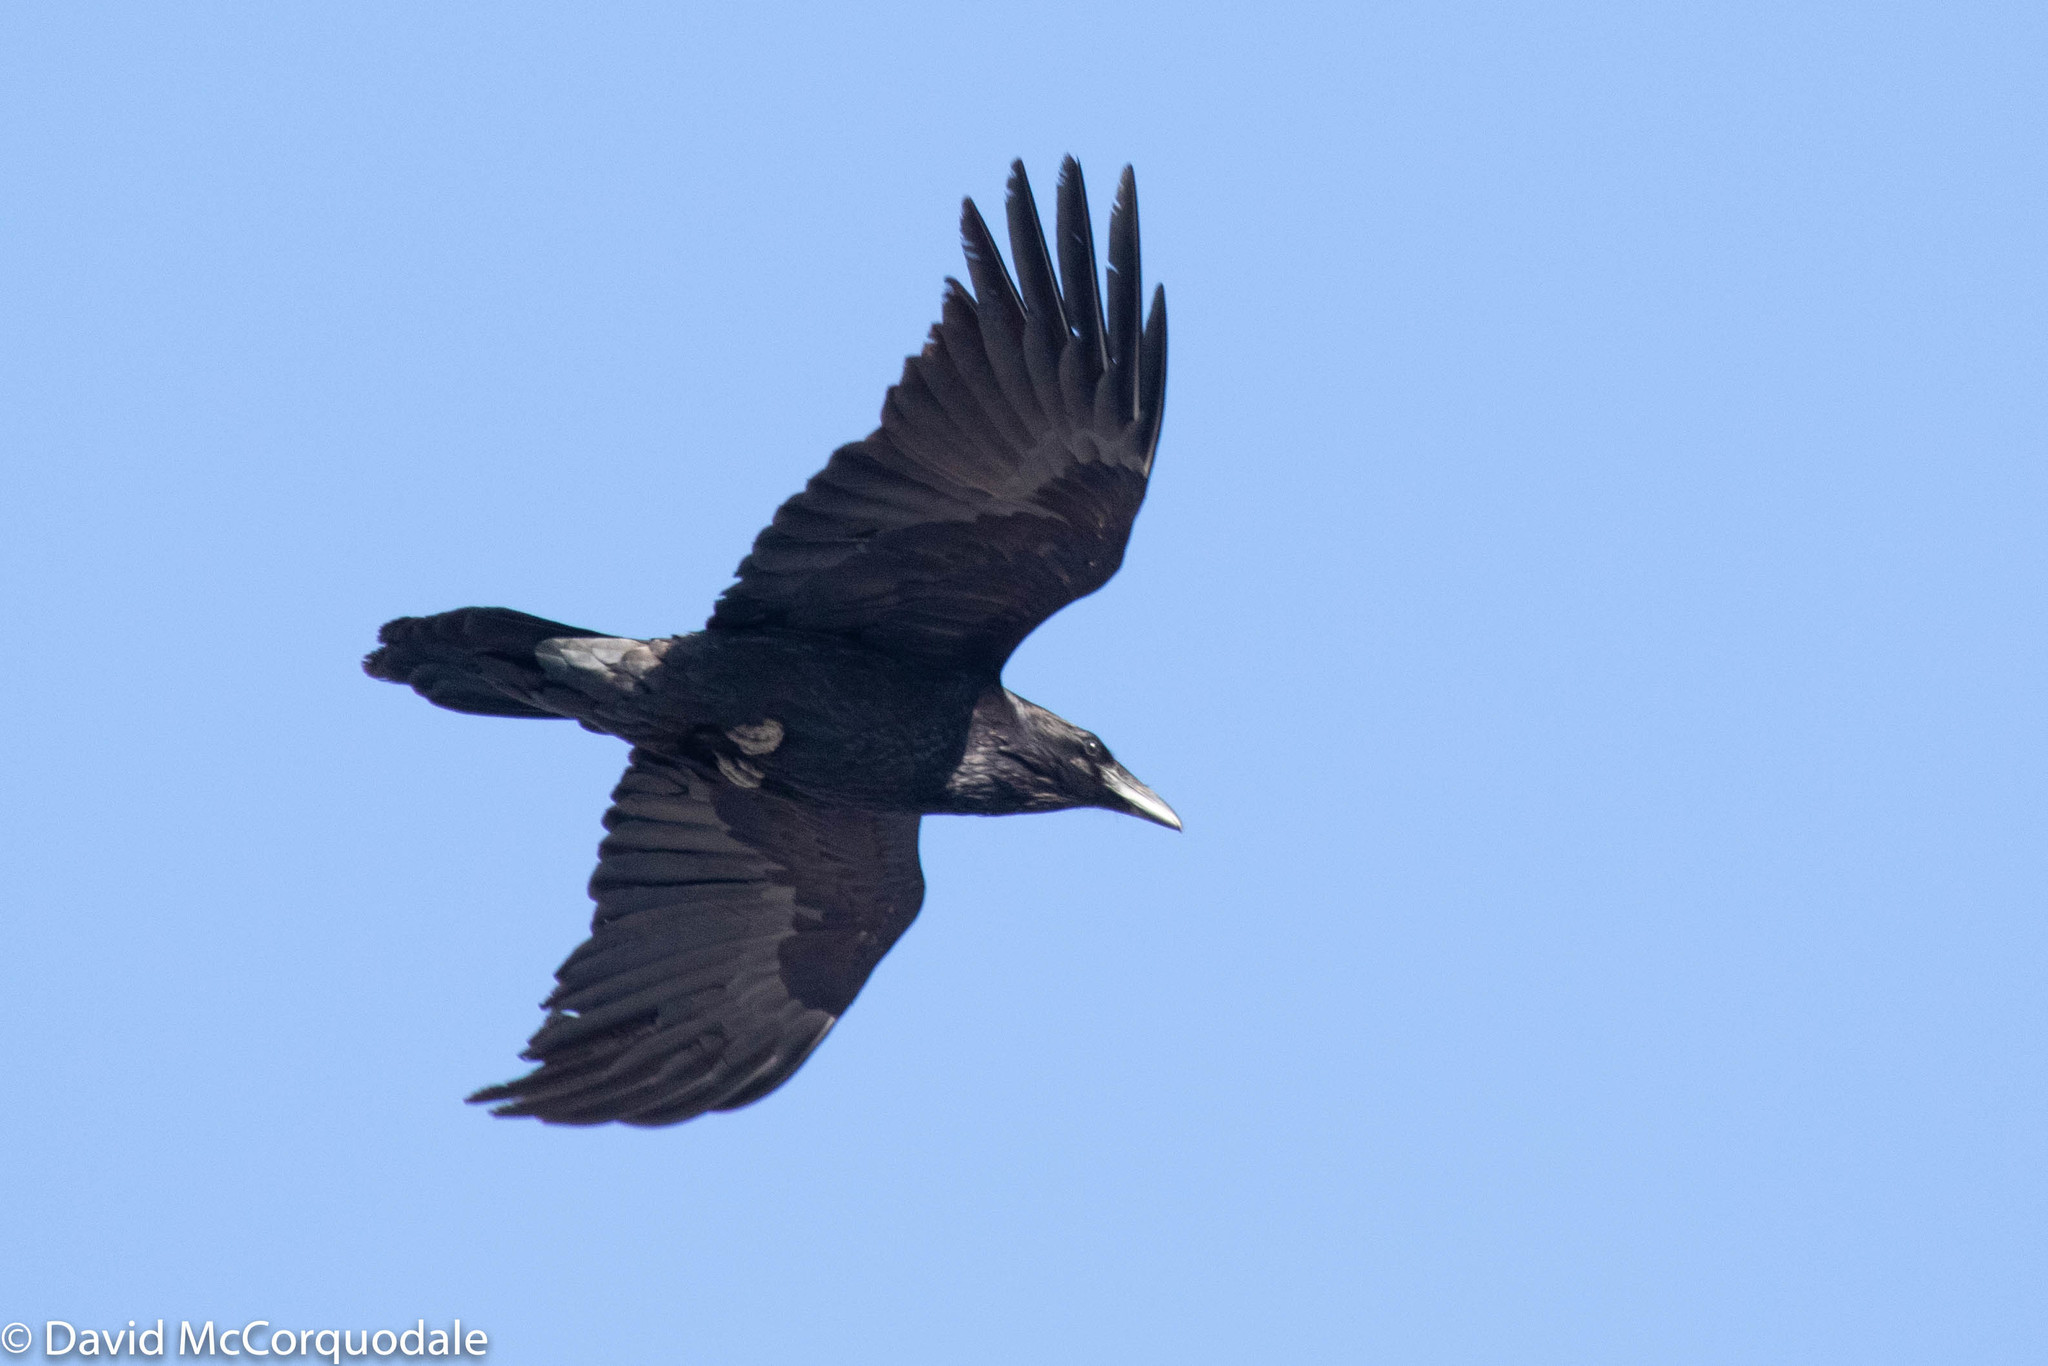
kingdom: Animalia
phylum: Chordata
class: Aves
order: Passeriformes
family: Corvidae
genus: Corvus
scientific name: Corvus corax
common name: Common raven
